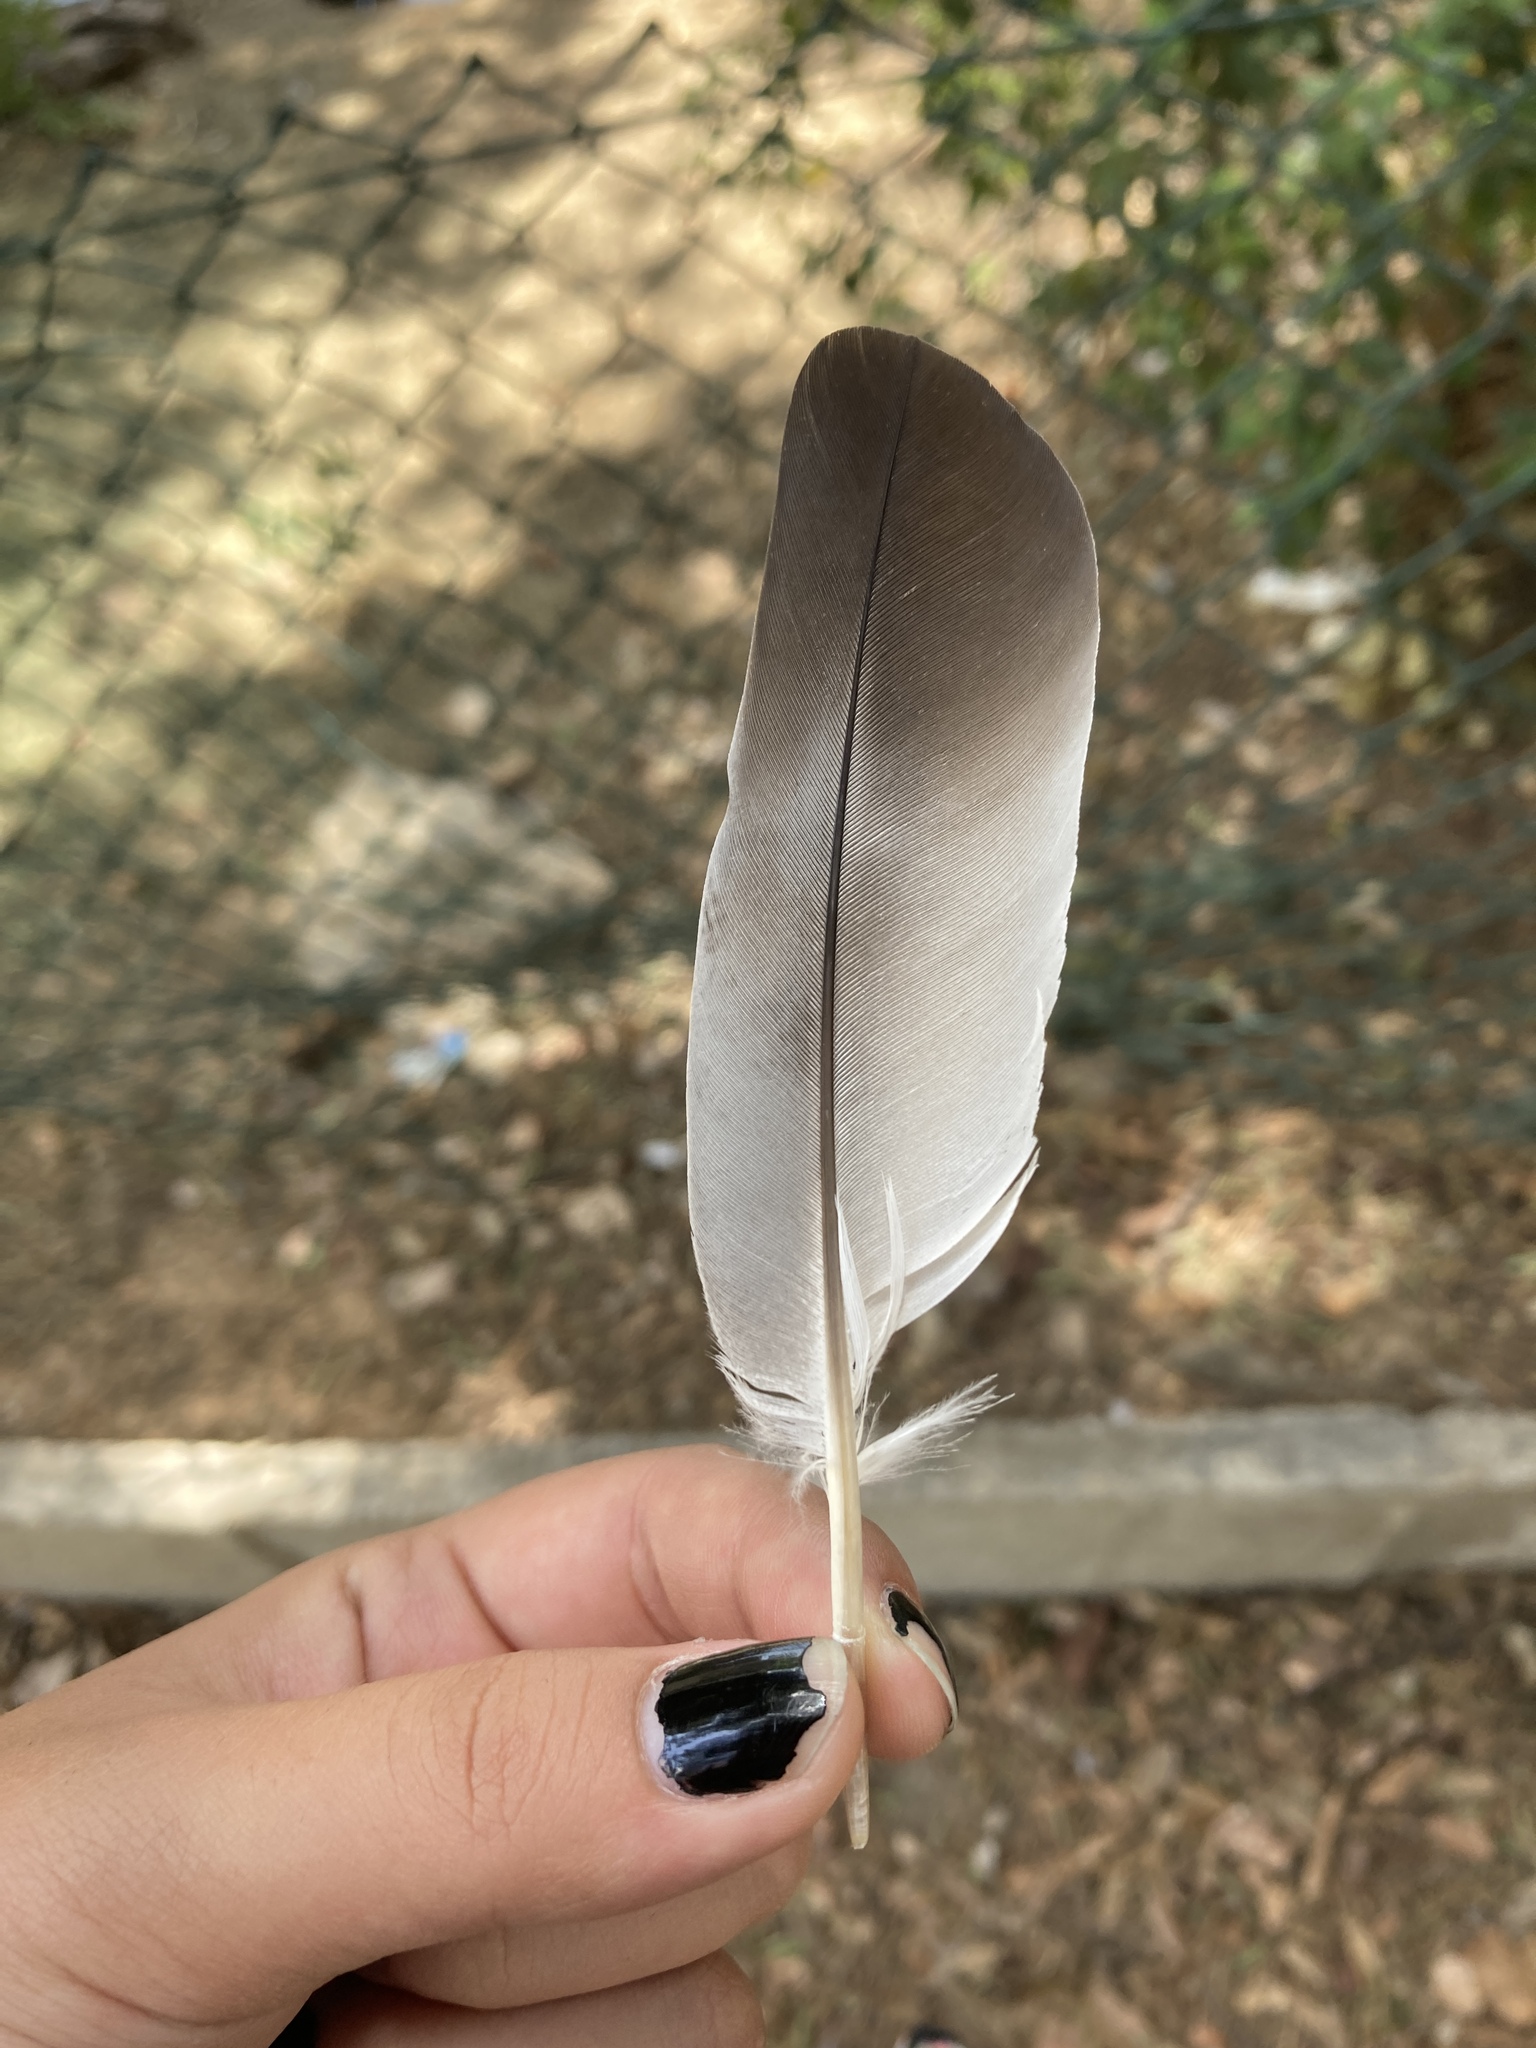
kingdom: Animalia
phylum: Chordata
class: Aves
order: Columbiformes
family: Columbidae
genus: Columba
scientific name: Columba livia
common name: Rock pigeon
